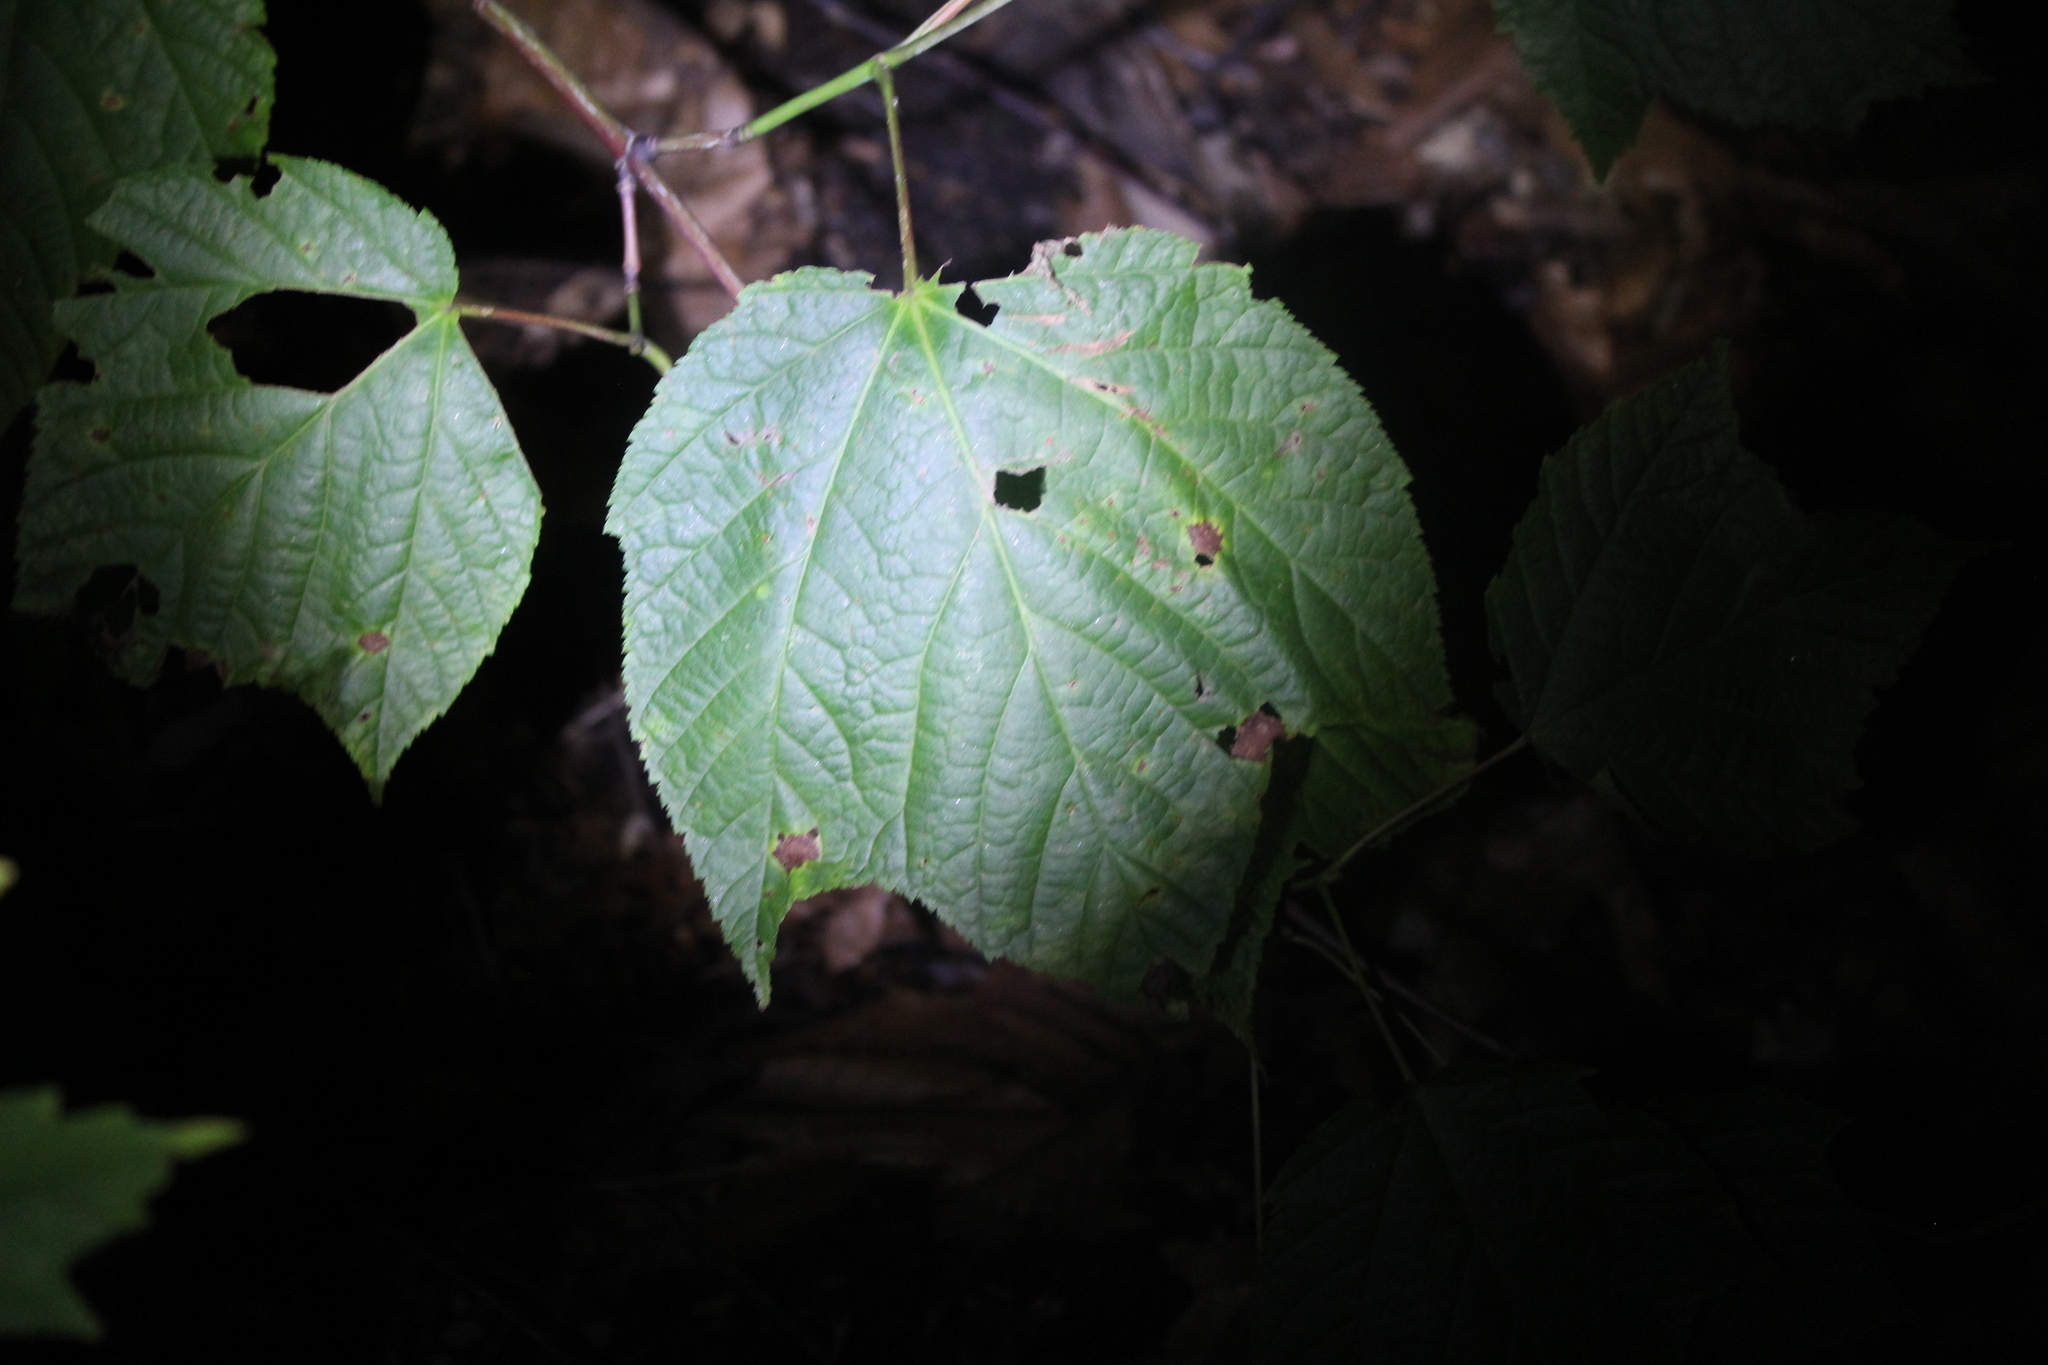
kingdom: Plantae
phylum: Tracheophyta
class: Magnoliopsida
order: Sapindales
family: Sapindaceae
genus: Acer
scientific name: Acer pensylvanicum
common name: Moosewood
